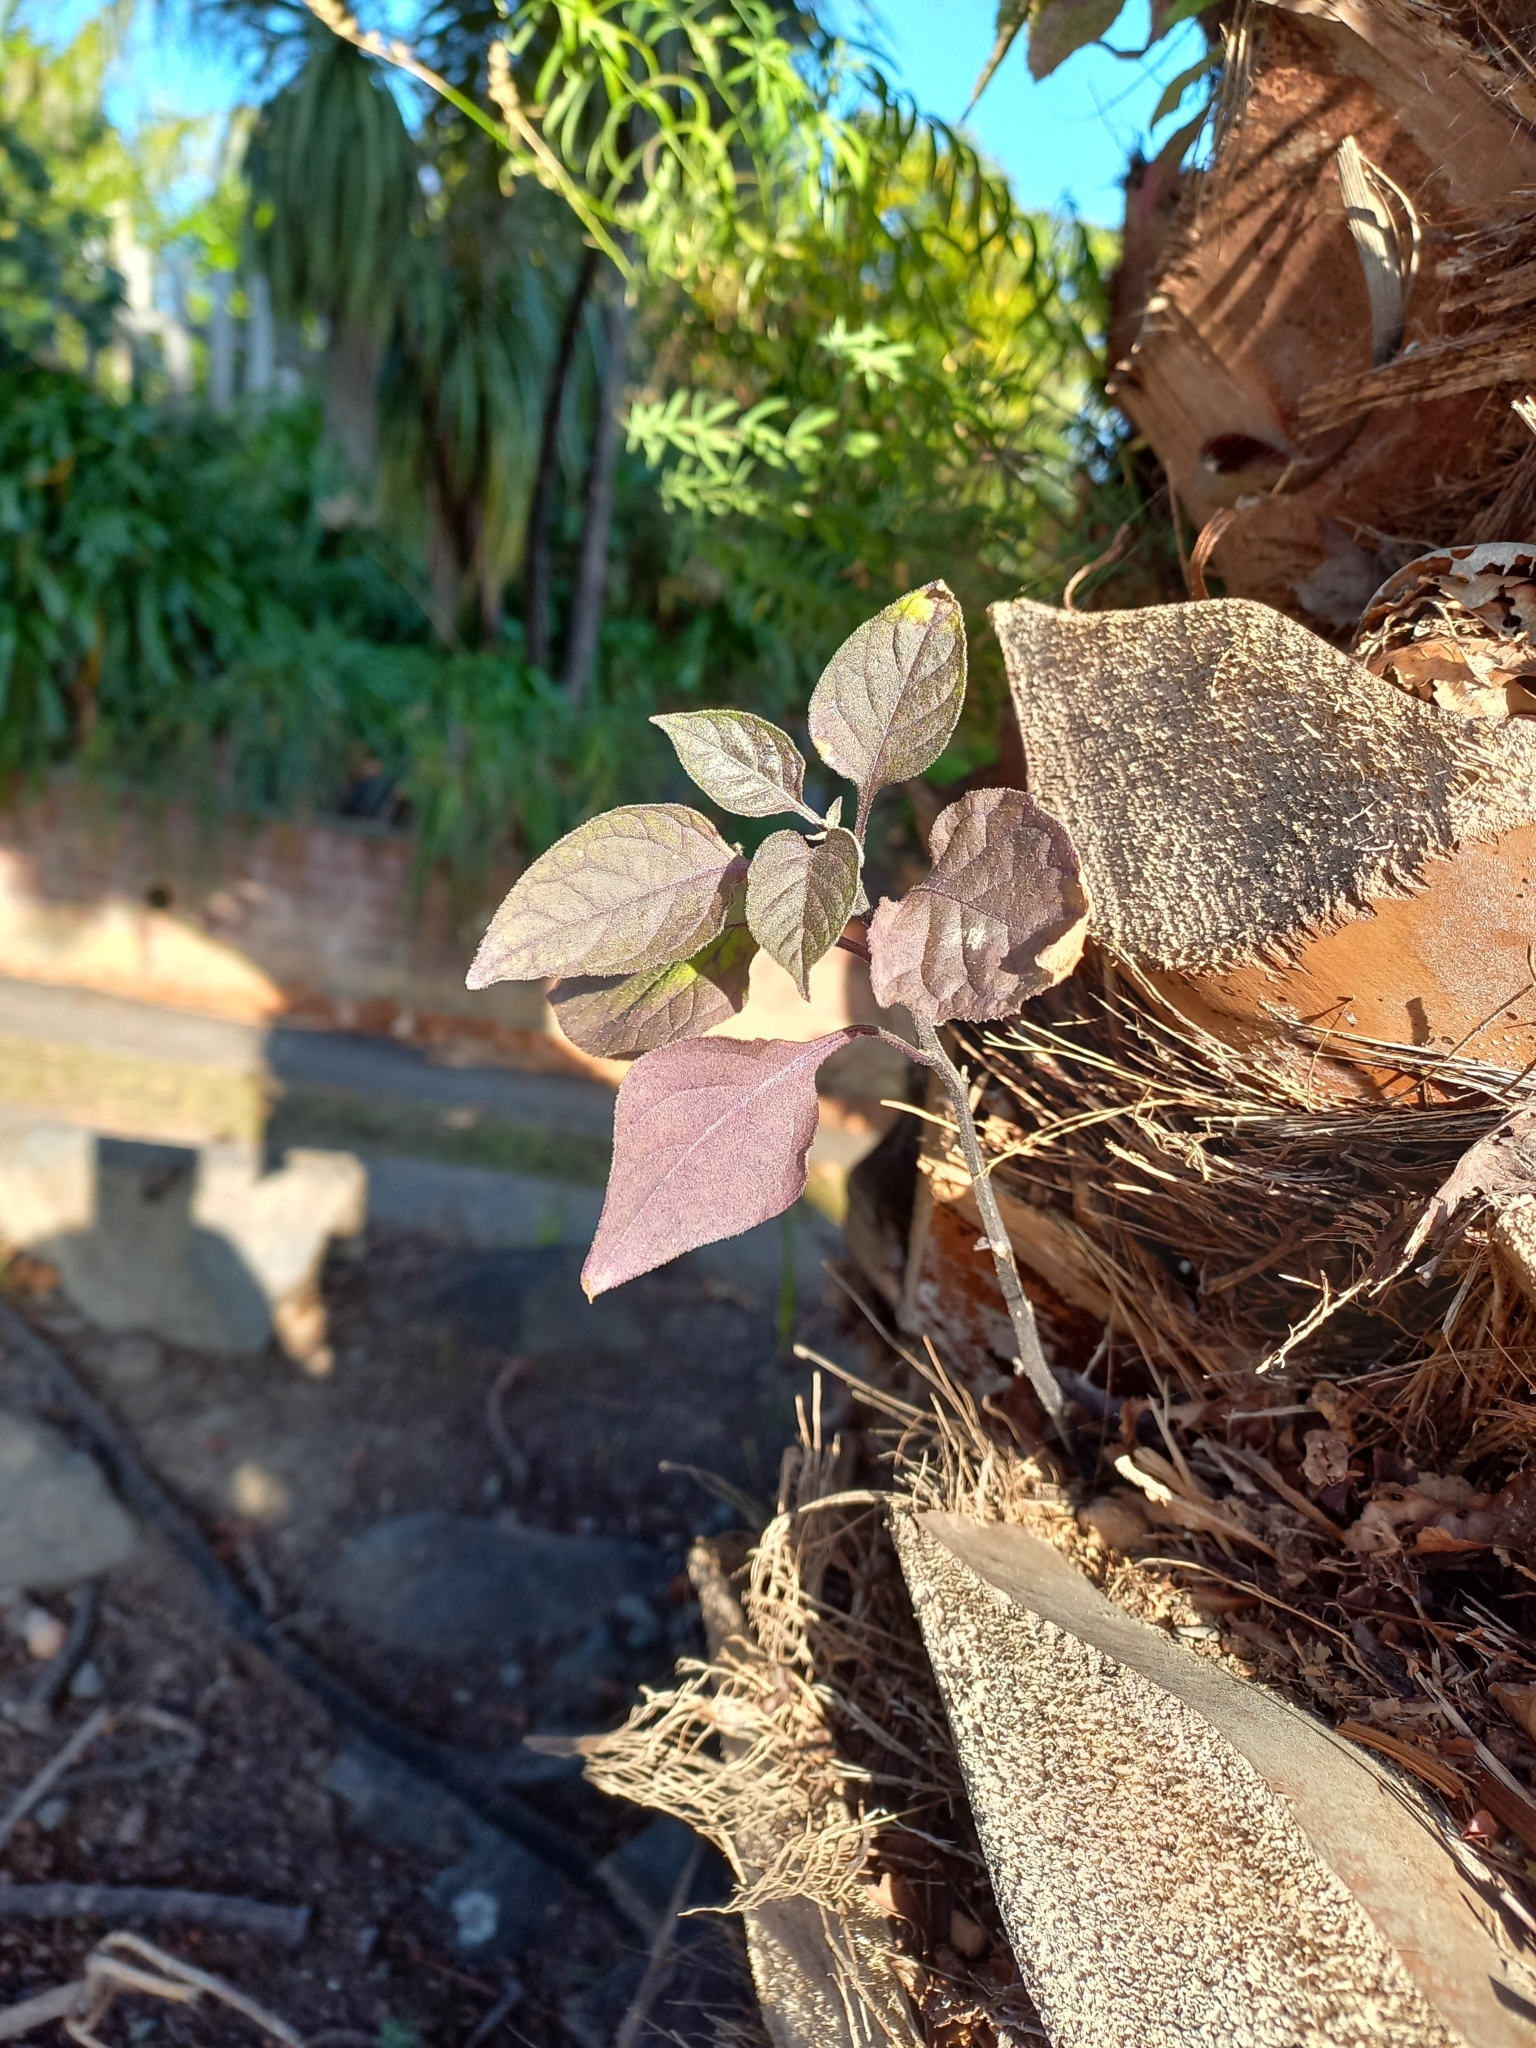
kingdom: Plantae
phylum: Tracheophyta
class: Magnoliopsida
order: Solanales
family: Solanaceae
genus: Solanum
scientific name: Solanum nigrum
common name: Black nightshade
